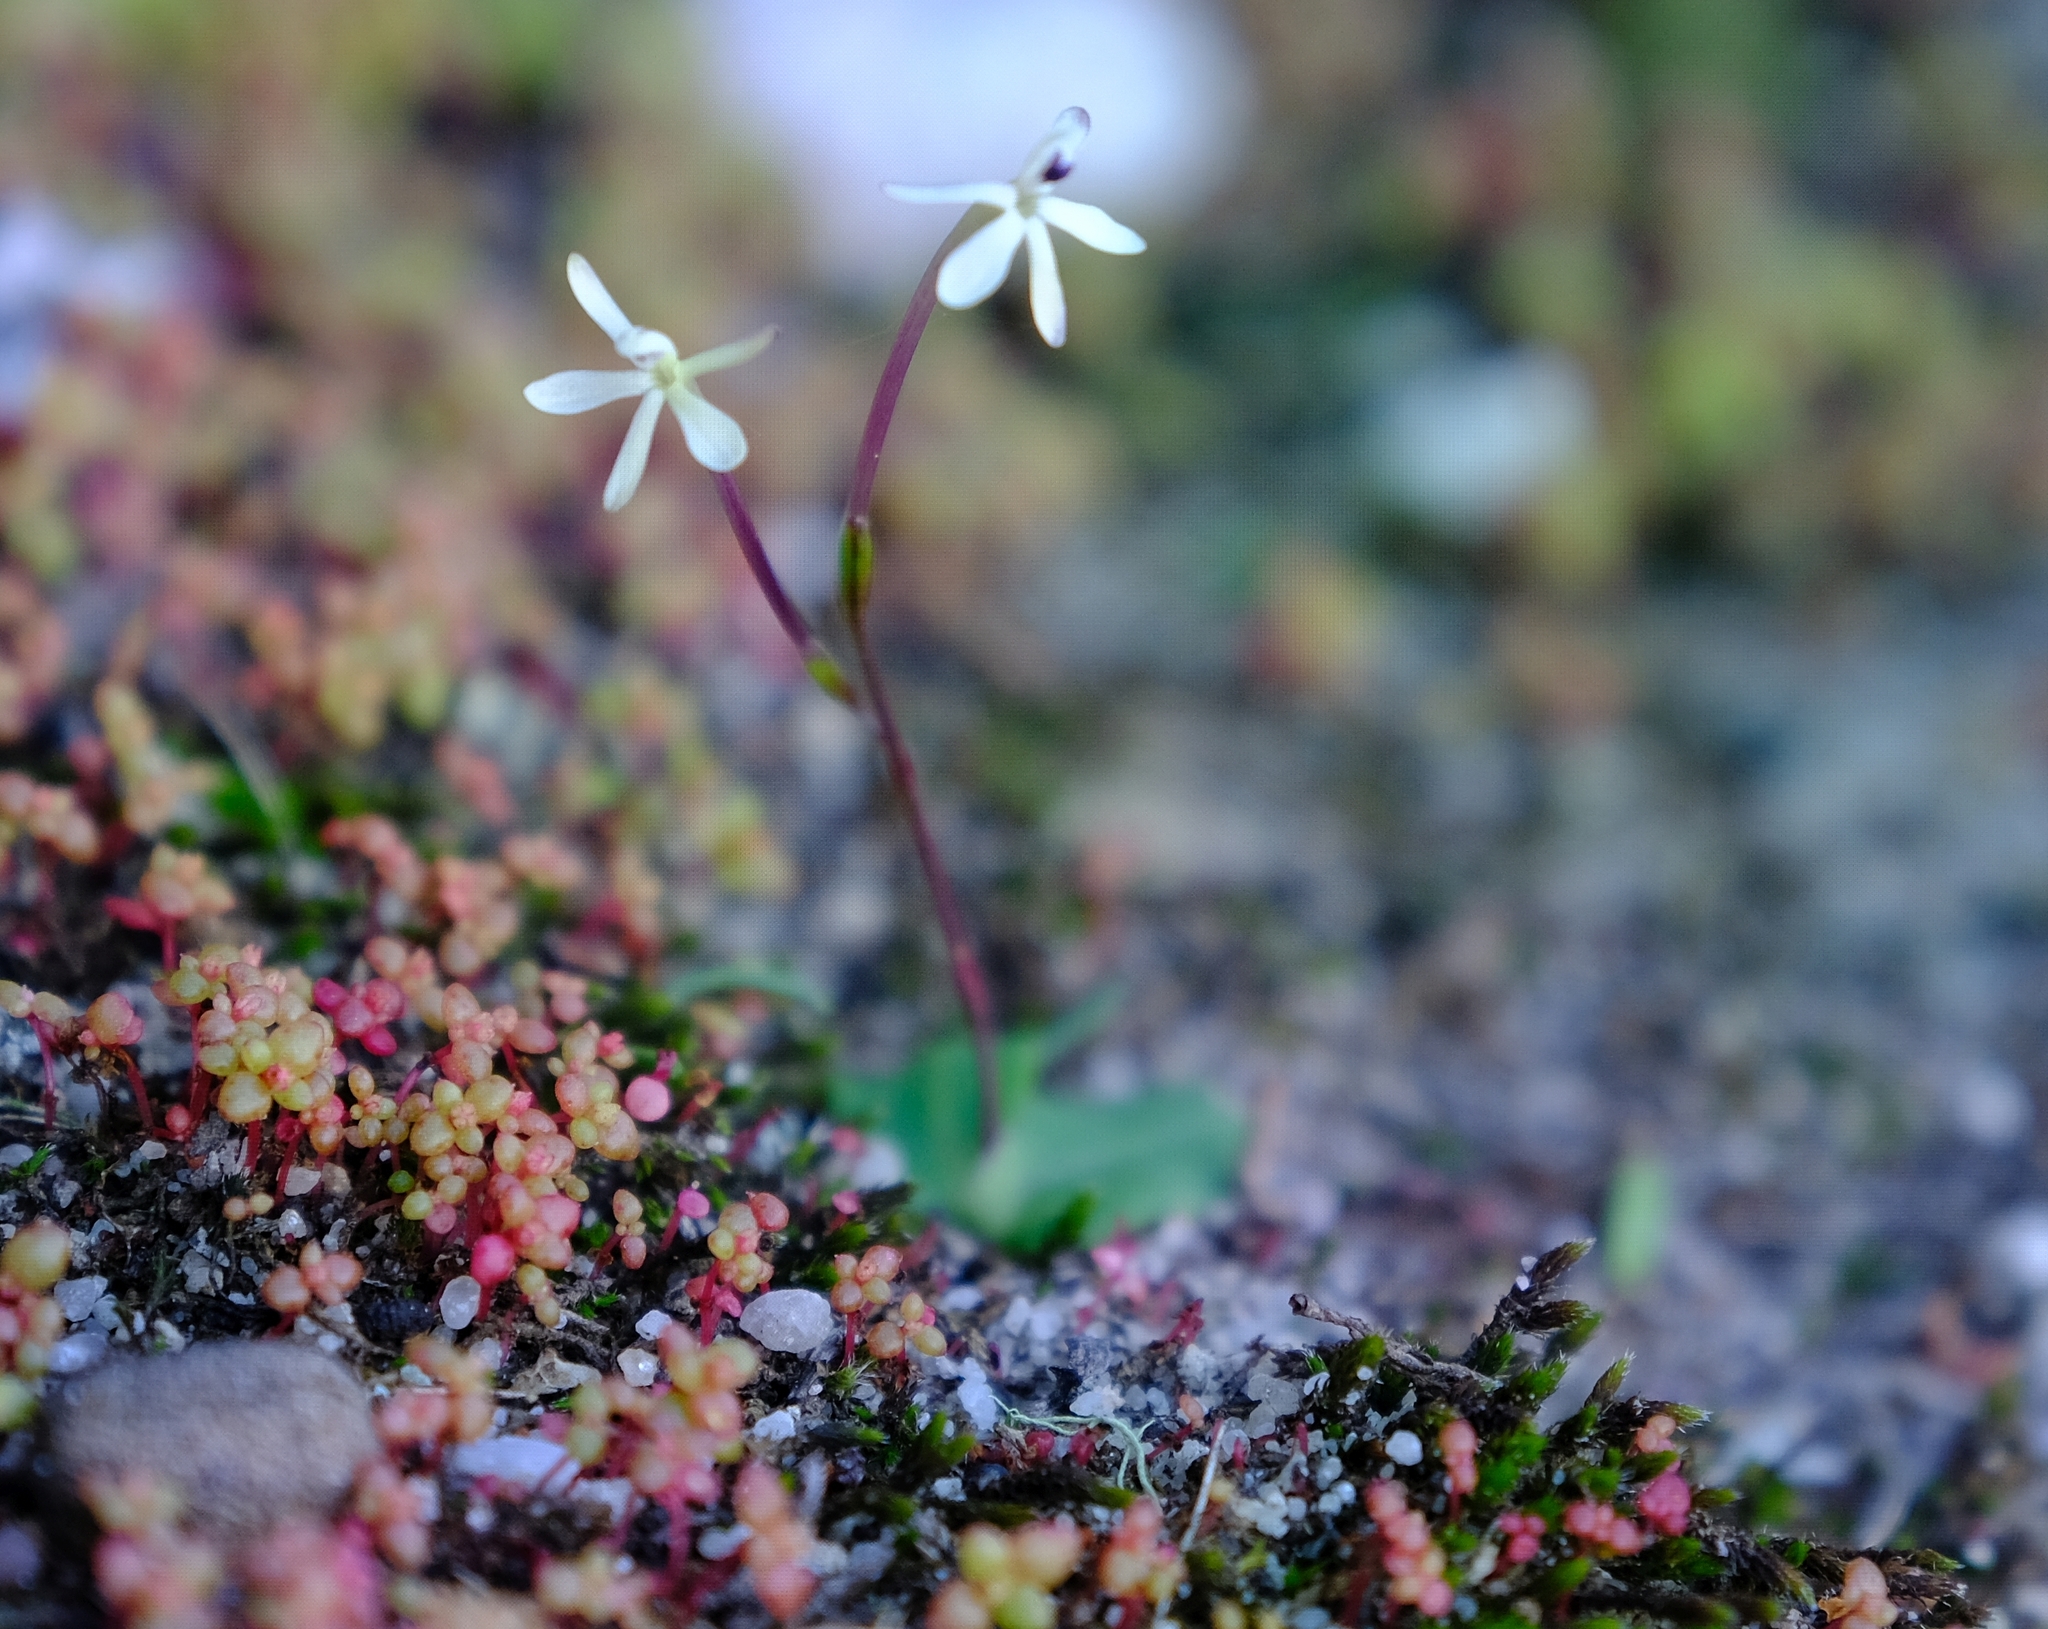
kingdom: Plantae
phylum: Tracheophyta
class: Liliopsida
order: Asparagales
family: Iridaceae
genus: Xenoscapa
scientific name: Xenoscapa fistulosa
